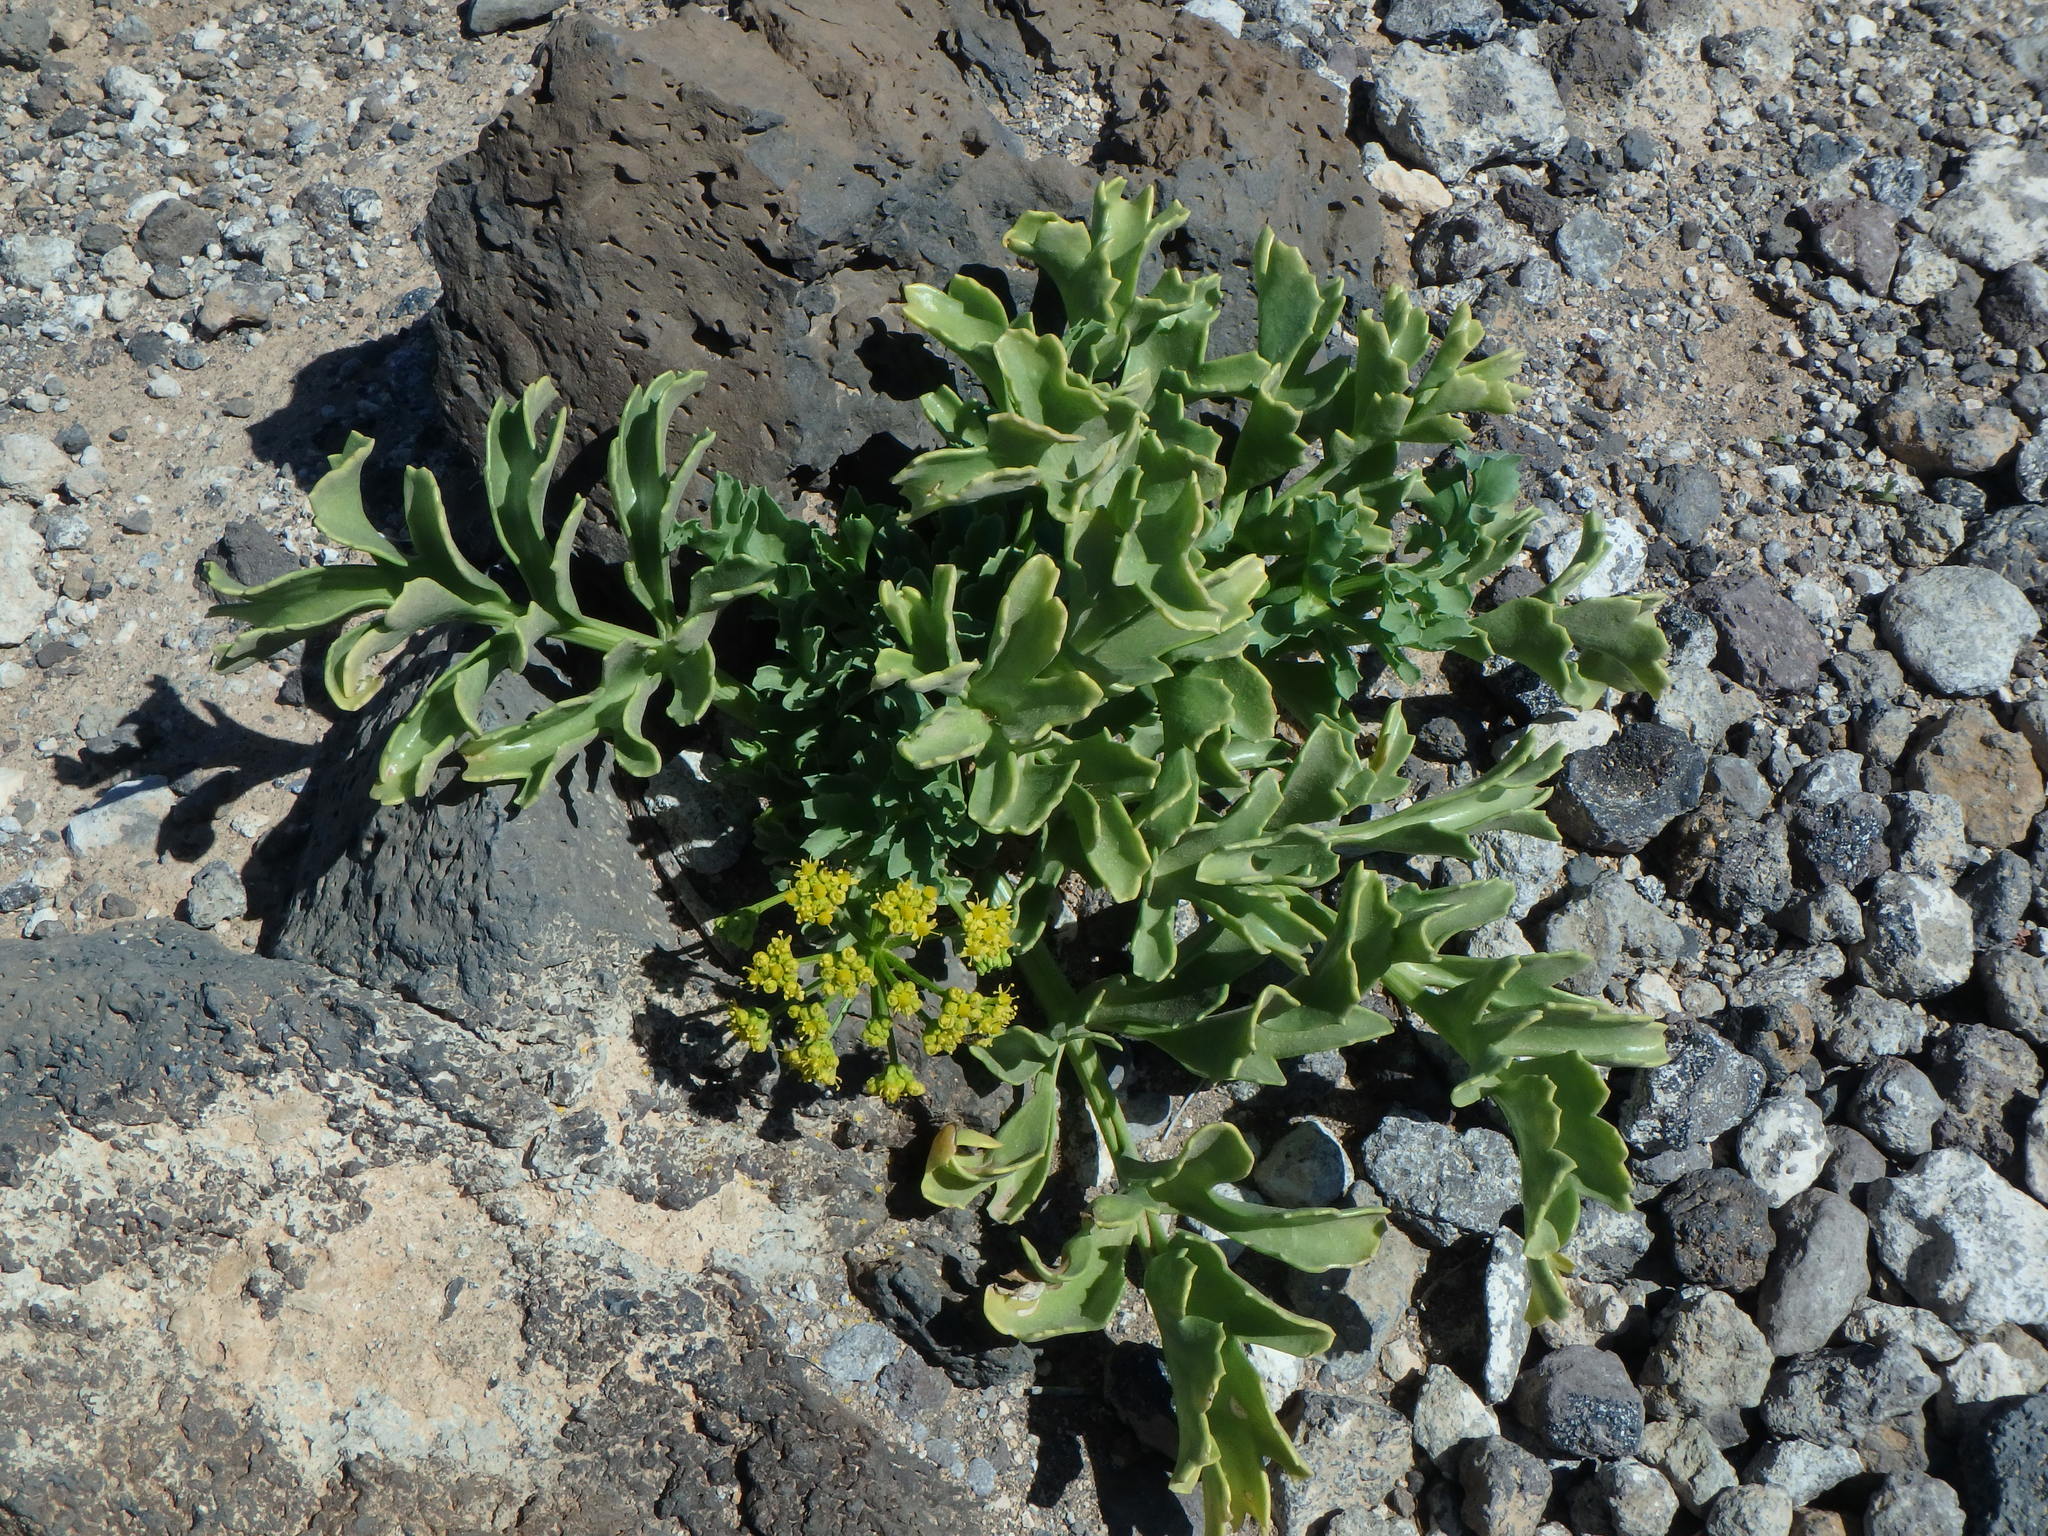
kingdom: Plantae
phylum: Tracheophyta
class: Magnoliopsida
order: Apiales
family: Apiaceae
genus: Astydamia
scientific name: Astydamia latifolia
